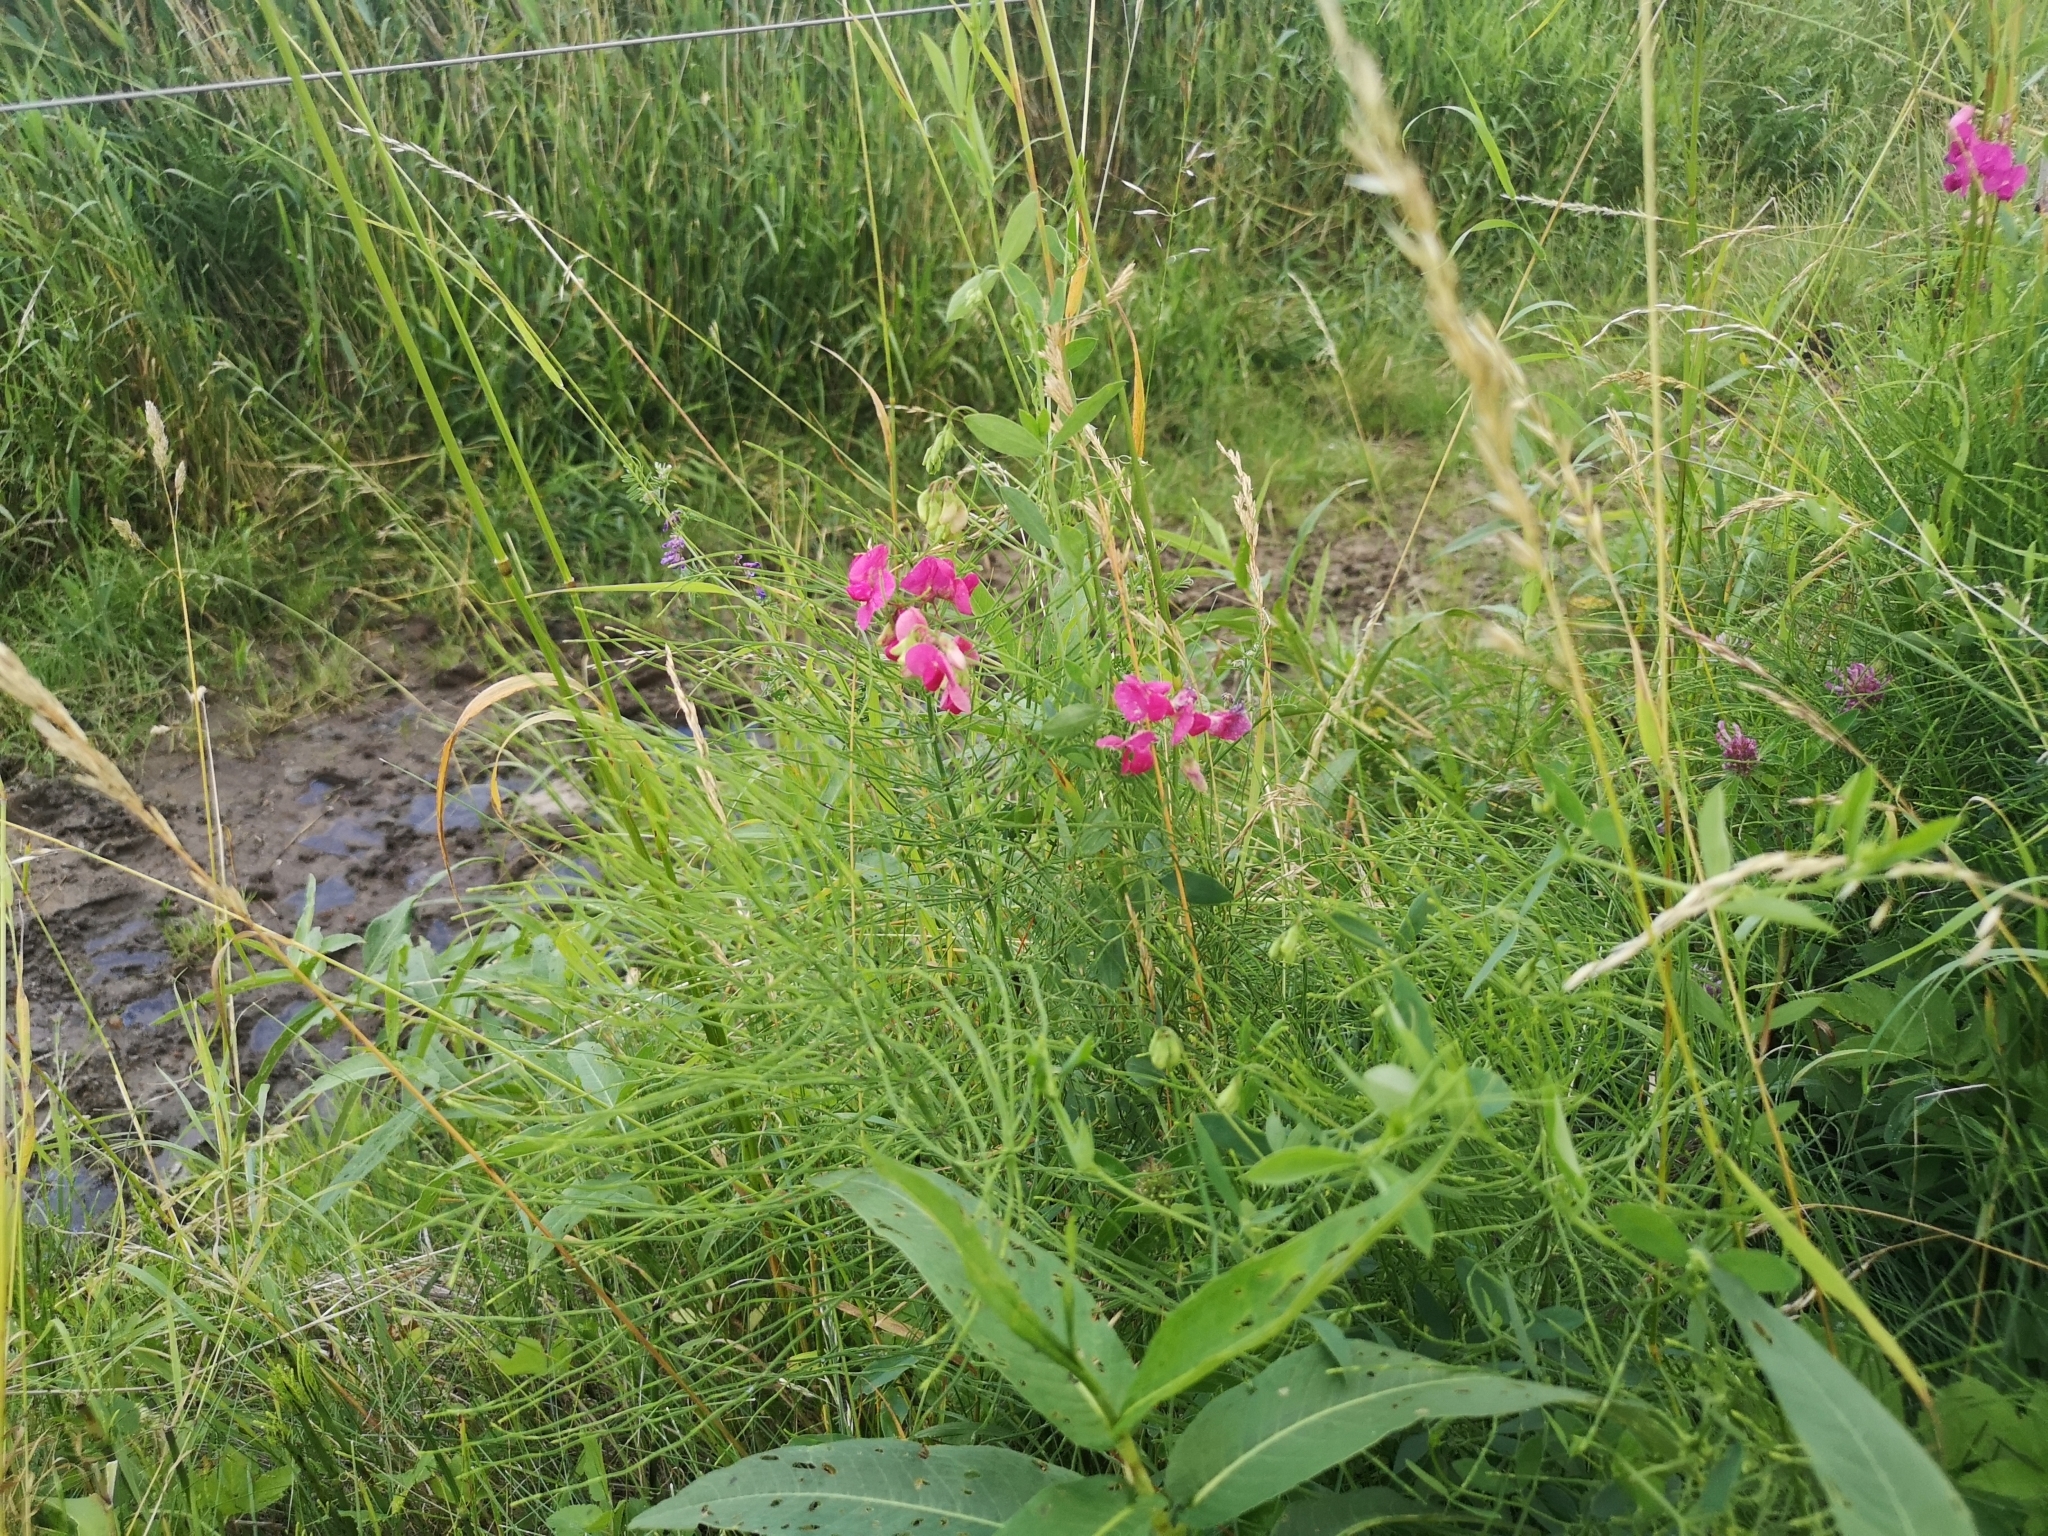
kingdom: Plantae
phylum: Tracheophyta
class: Magnoliopsida
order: Fabales
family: Fabaceae
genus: Lathyrus
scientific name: Lathyrus tuberosus
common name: Tuberous pea
